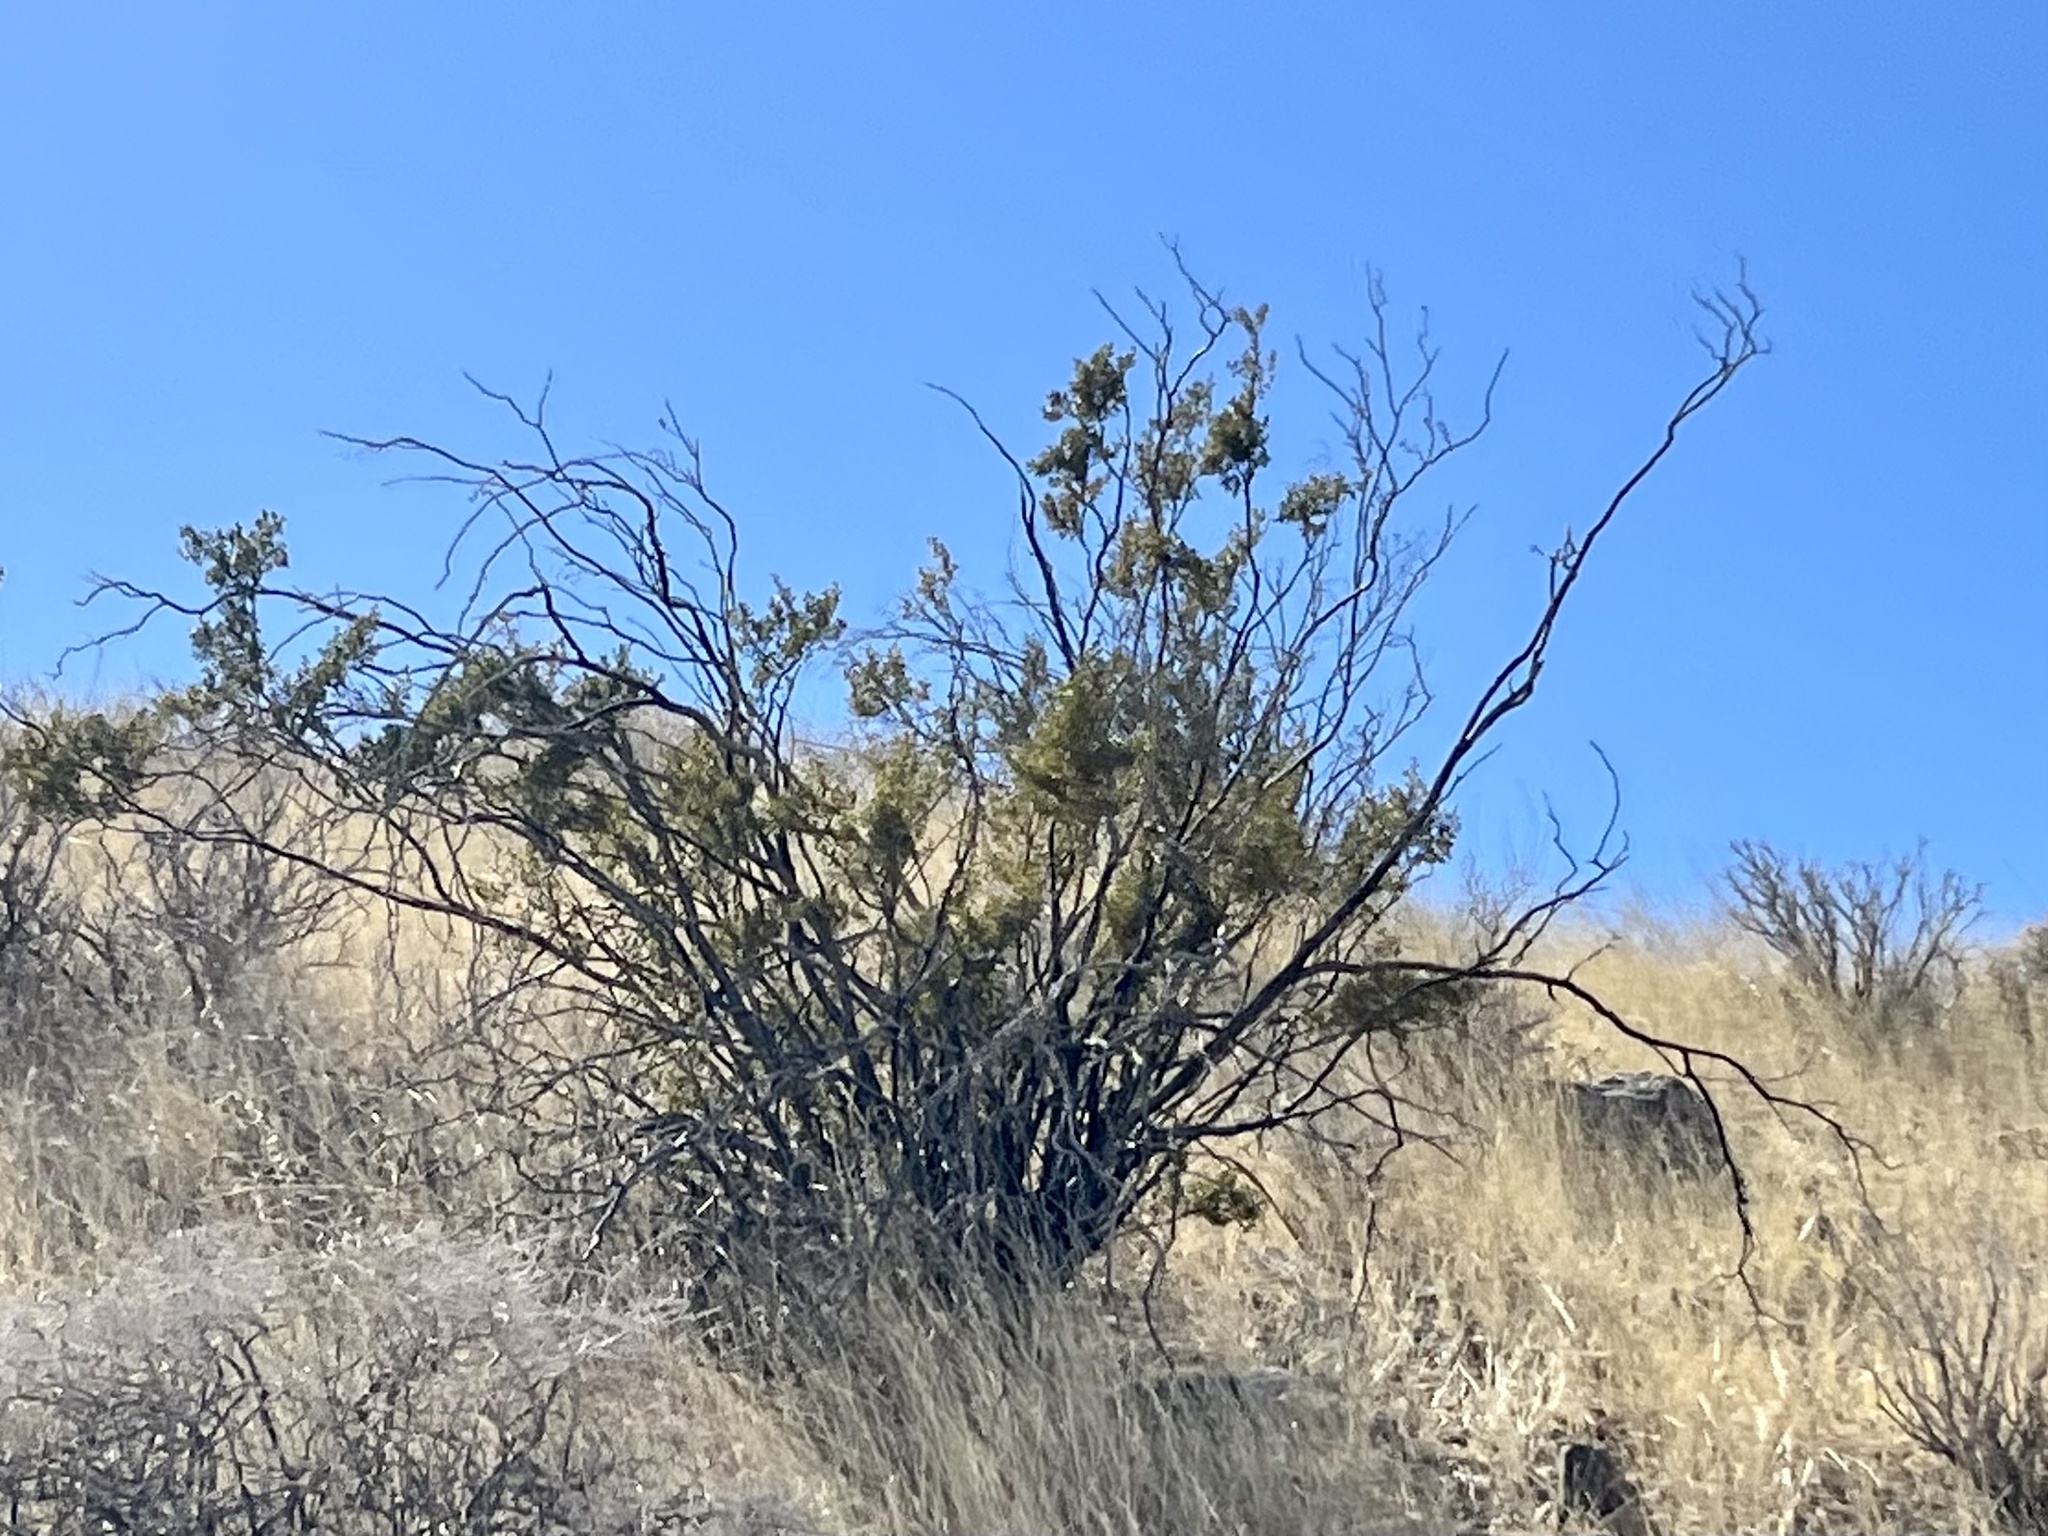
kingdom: Plantae
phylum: Tracheophyta
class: Magnoliopsida
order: Zygophyllales
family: Zygophyllaceae
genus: Larrea
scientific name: Larrea tridentata
